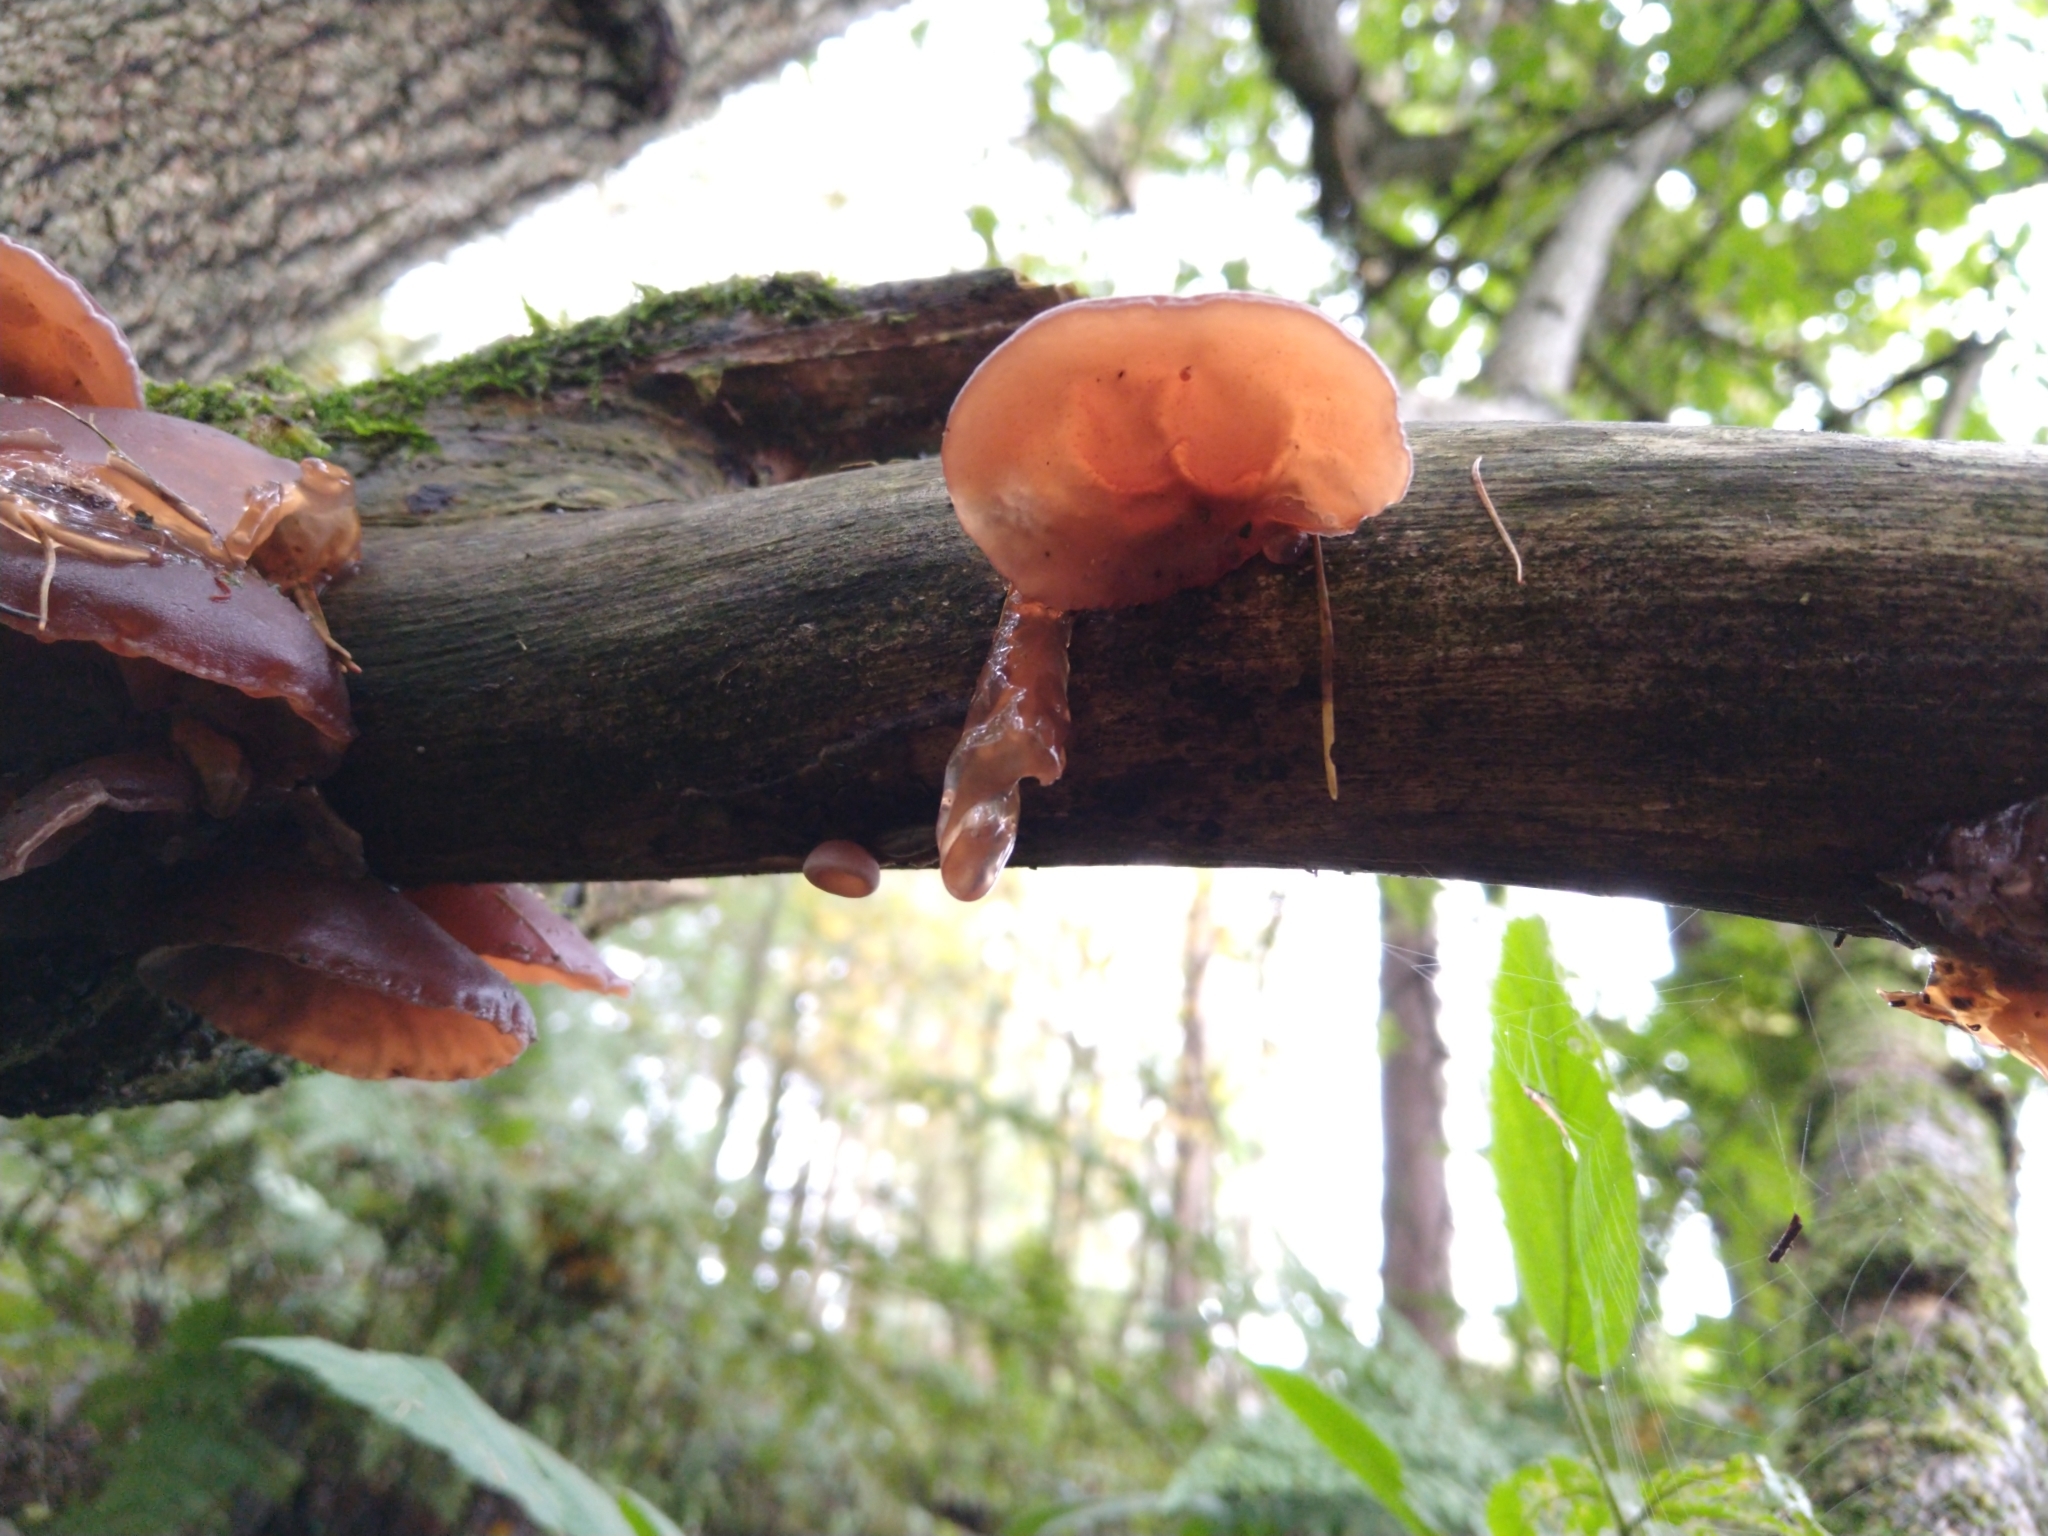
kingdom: Fungi
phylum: Basidiomycota
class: Agaricomycetes
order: Auriculariales
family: Auriculariaceae
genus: Auricularia
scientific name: Auricularia auricula-judae
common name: Jelly ear
